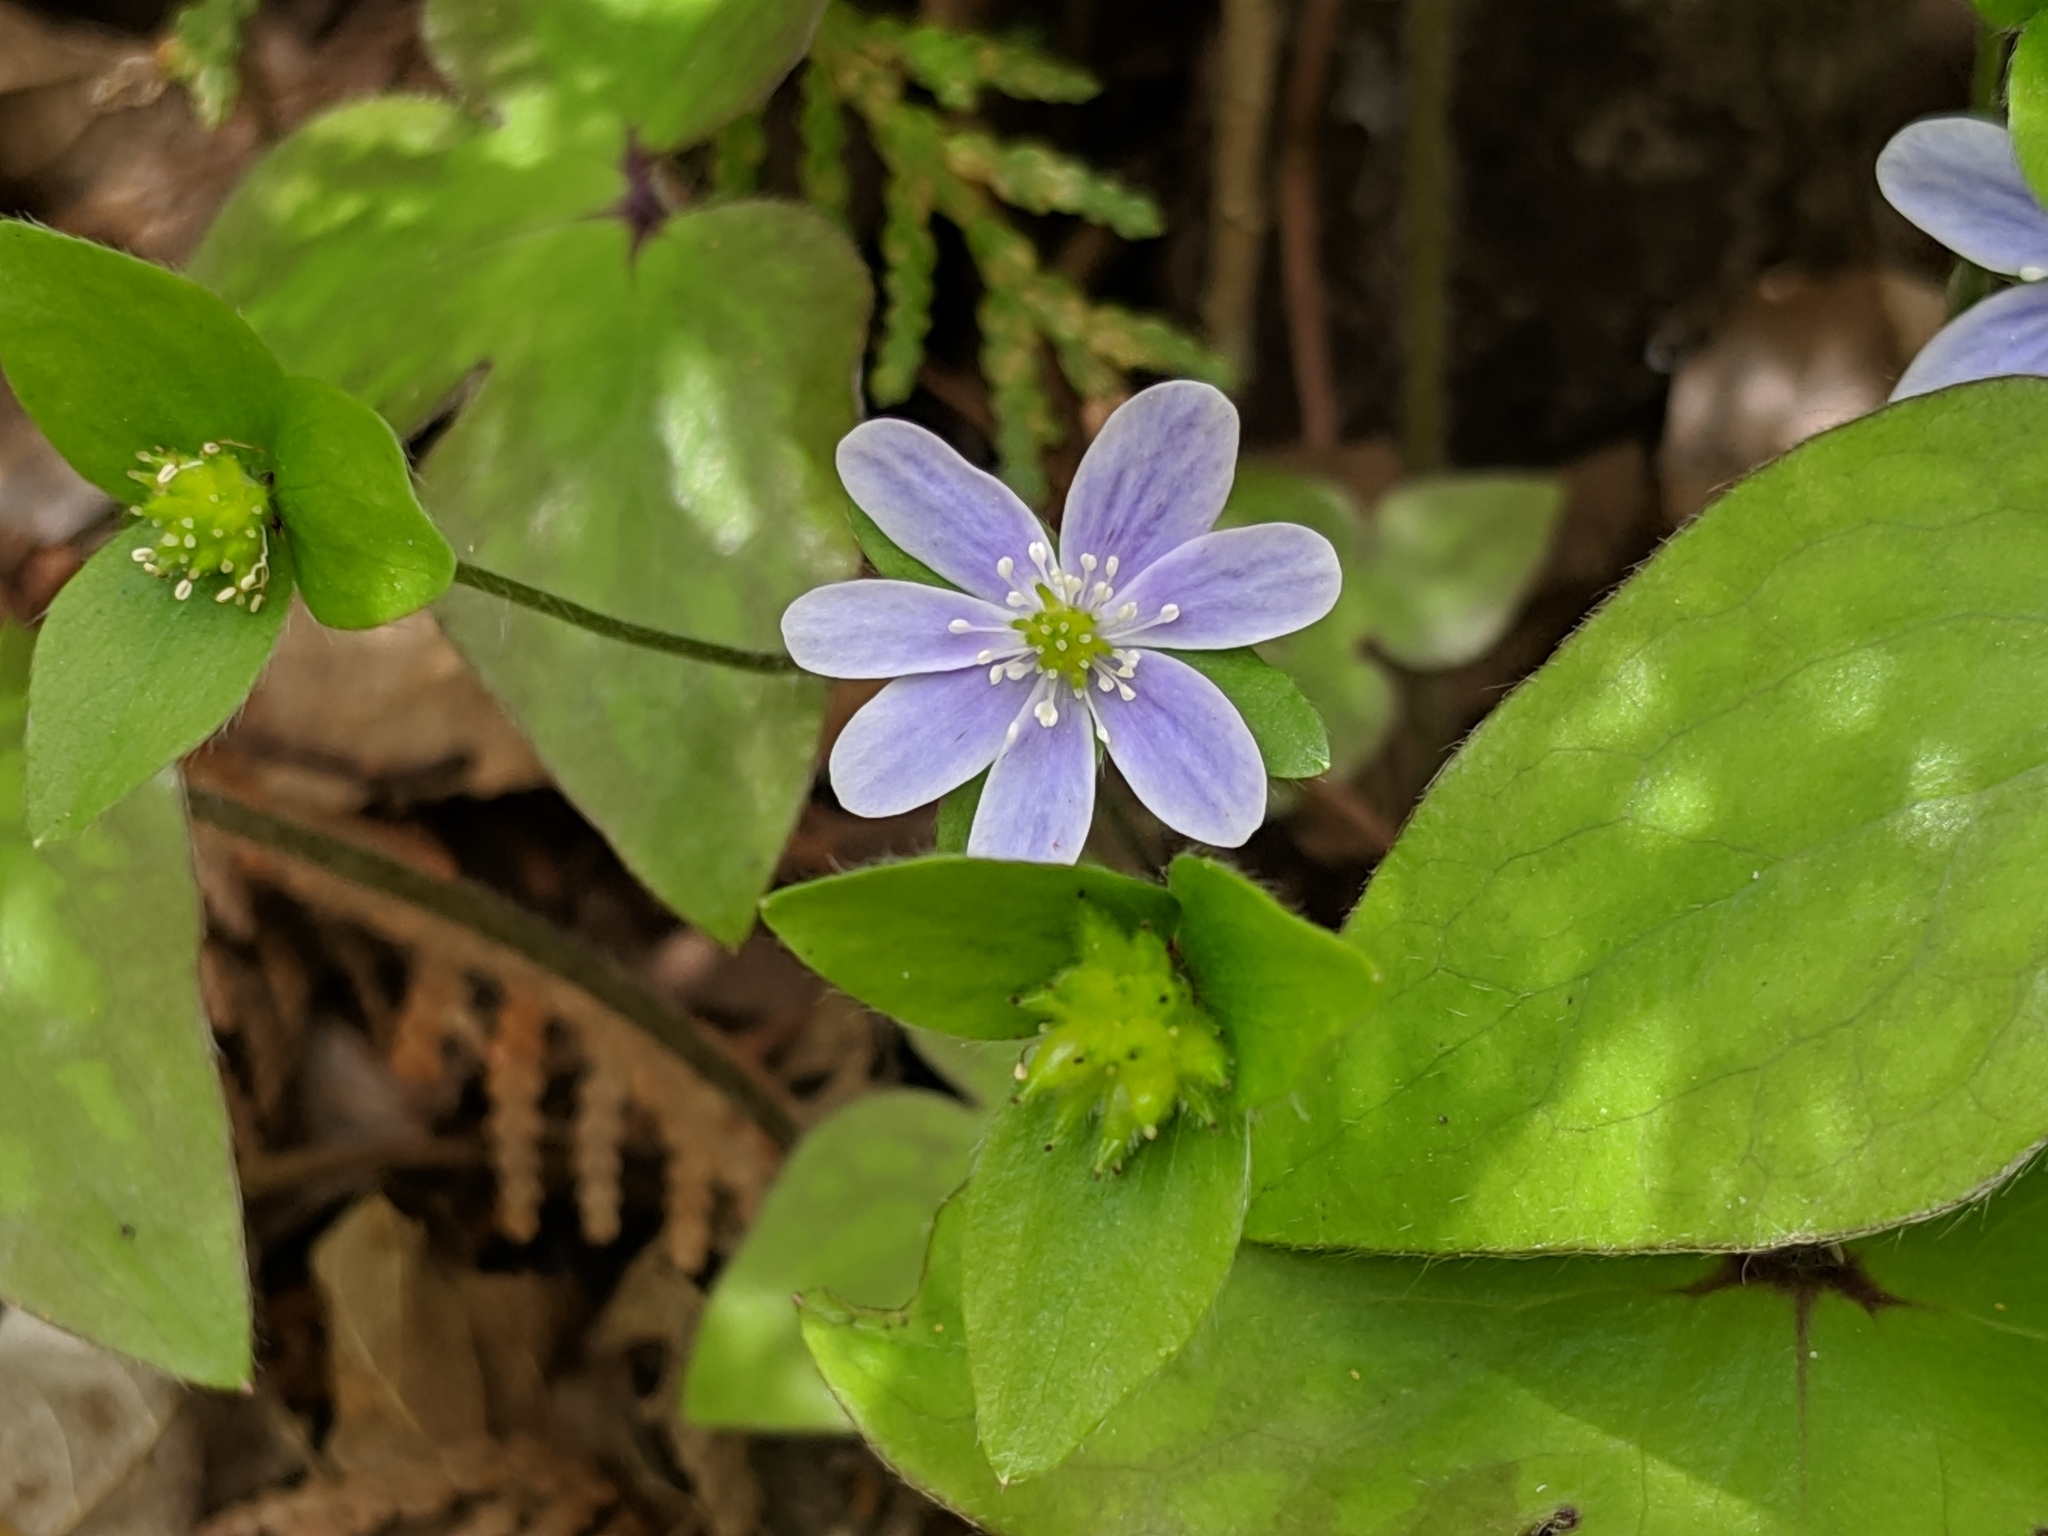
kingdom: Plantae
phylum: Tracheophyta
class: Magnoliopsida
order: Ranunculales
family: Ranunculaceae
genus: Hepatica
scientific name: Hepatica acutiloba
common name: Sharp-lobed hepatica
